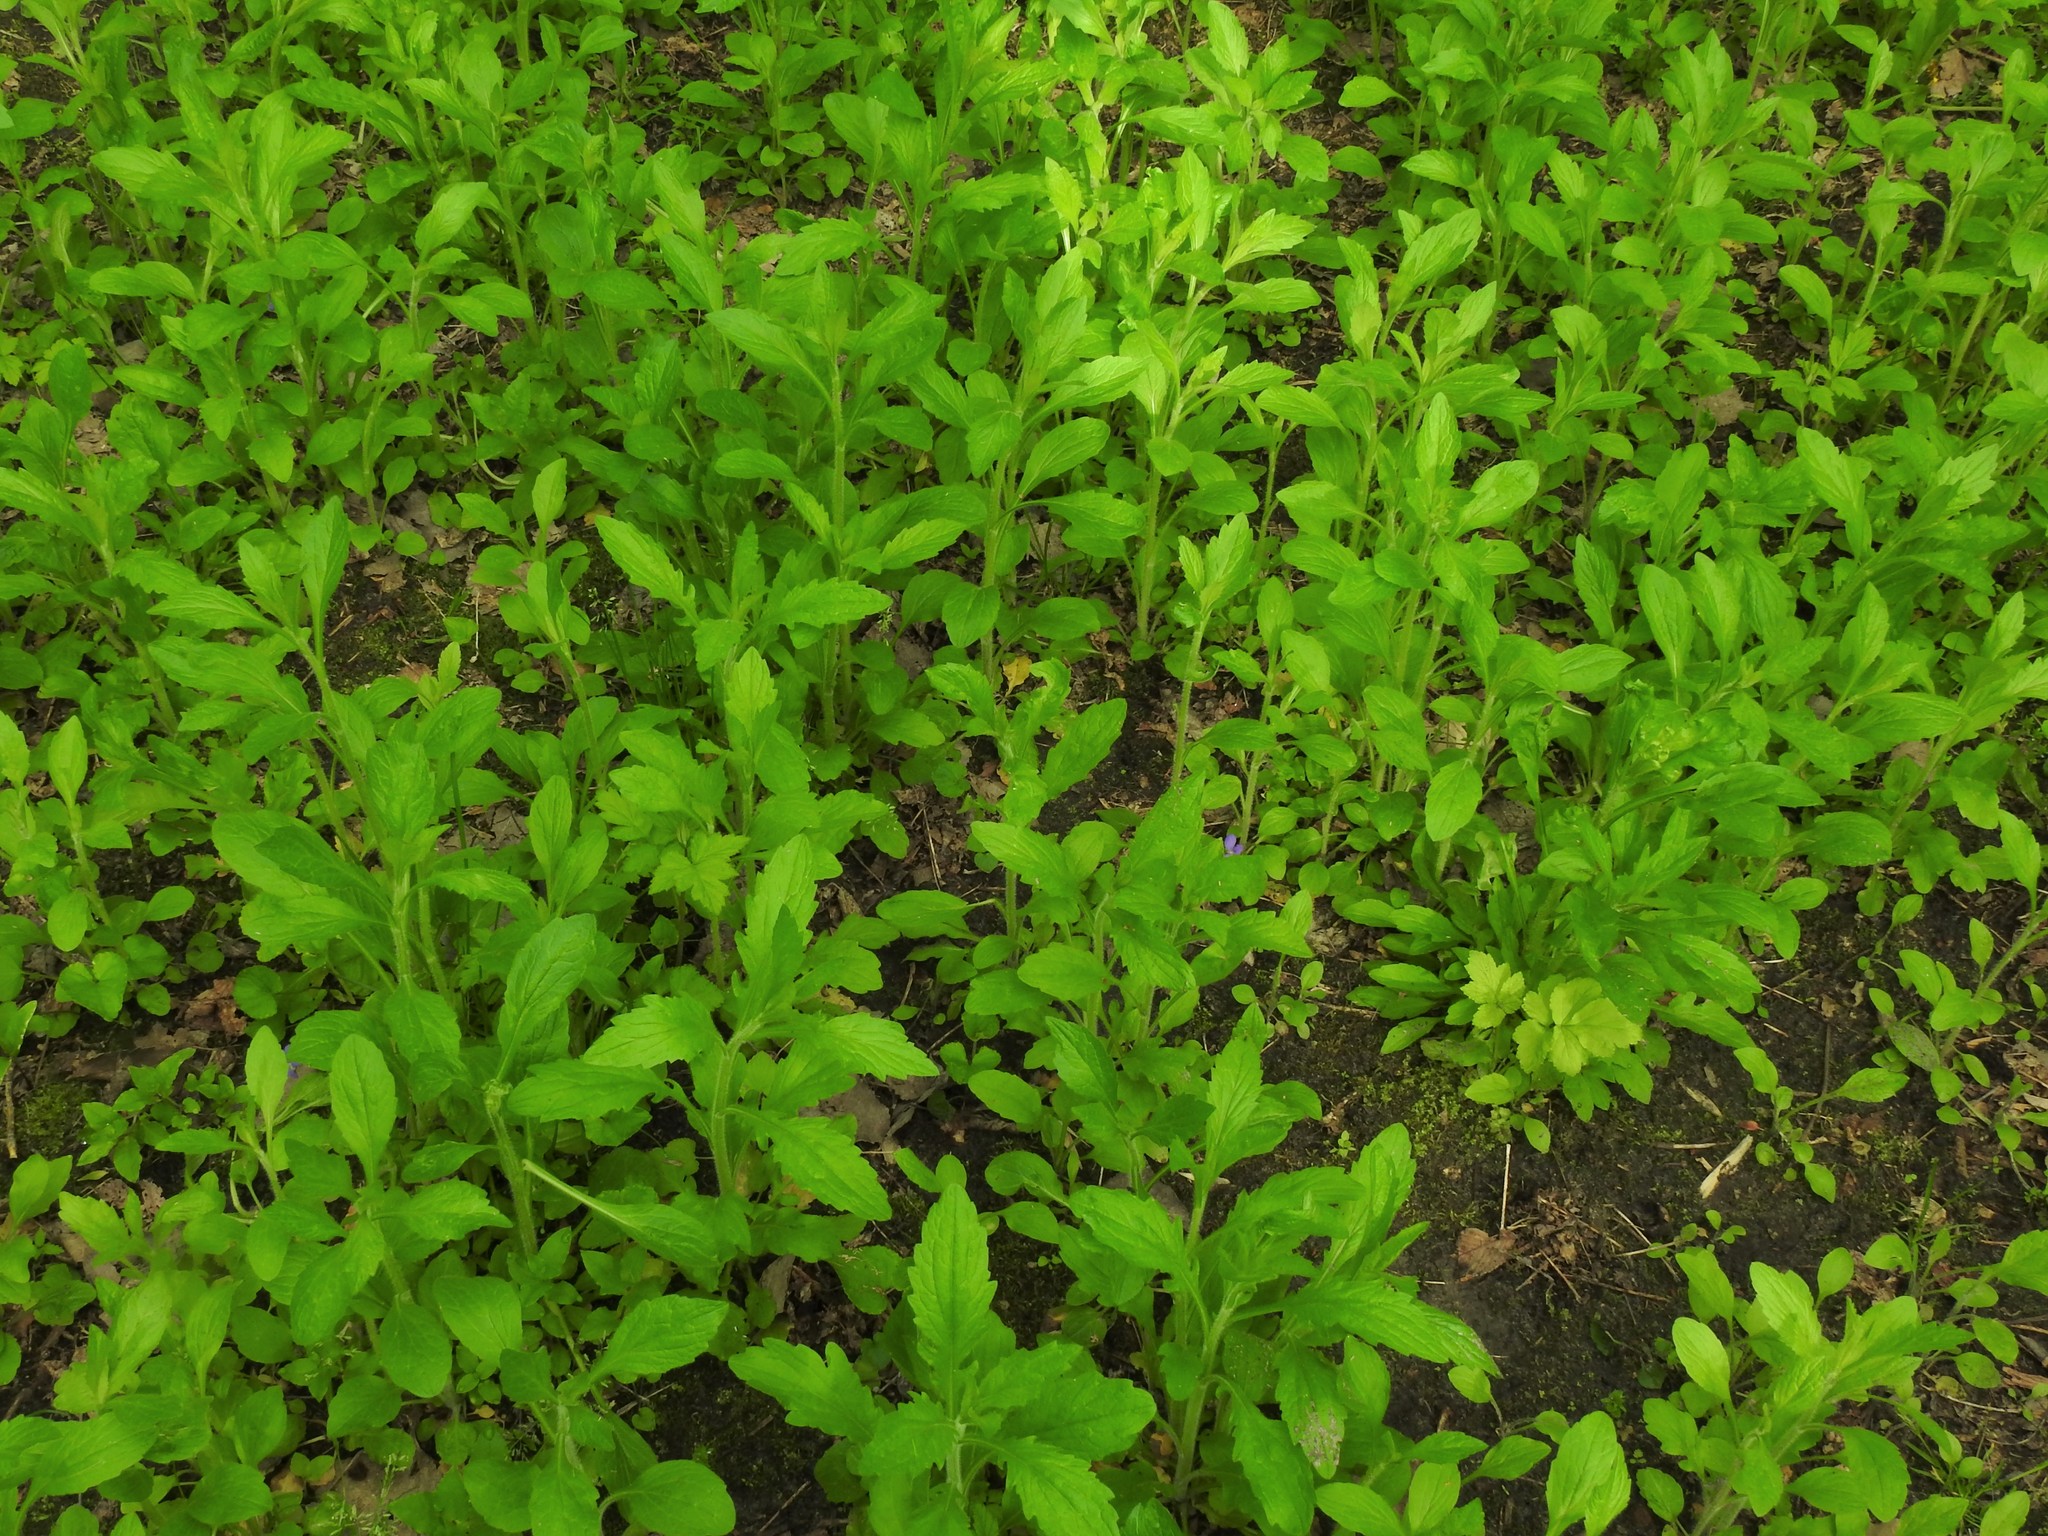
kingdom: Plantae
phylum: Tracheophyta
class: Magnoliopsida
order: Asterales
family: Asteraceae
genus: Erigeron
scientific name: Erigeron
